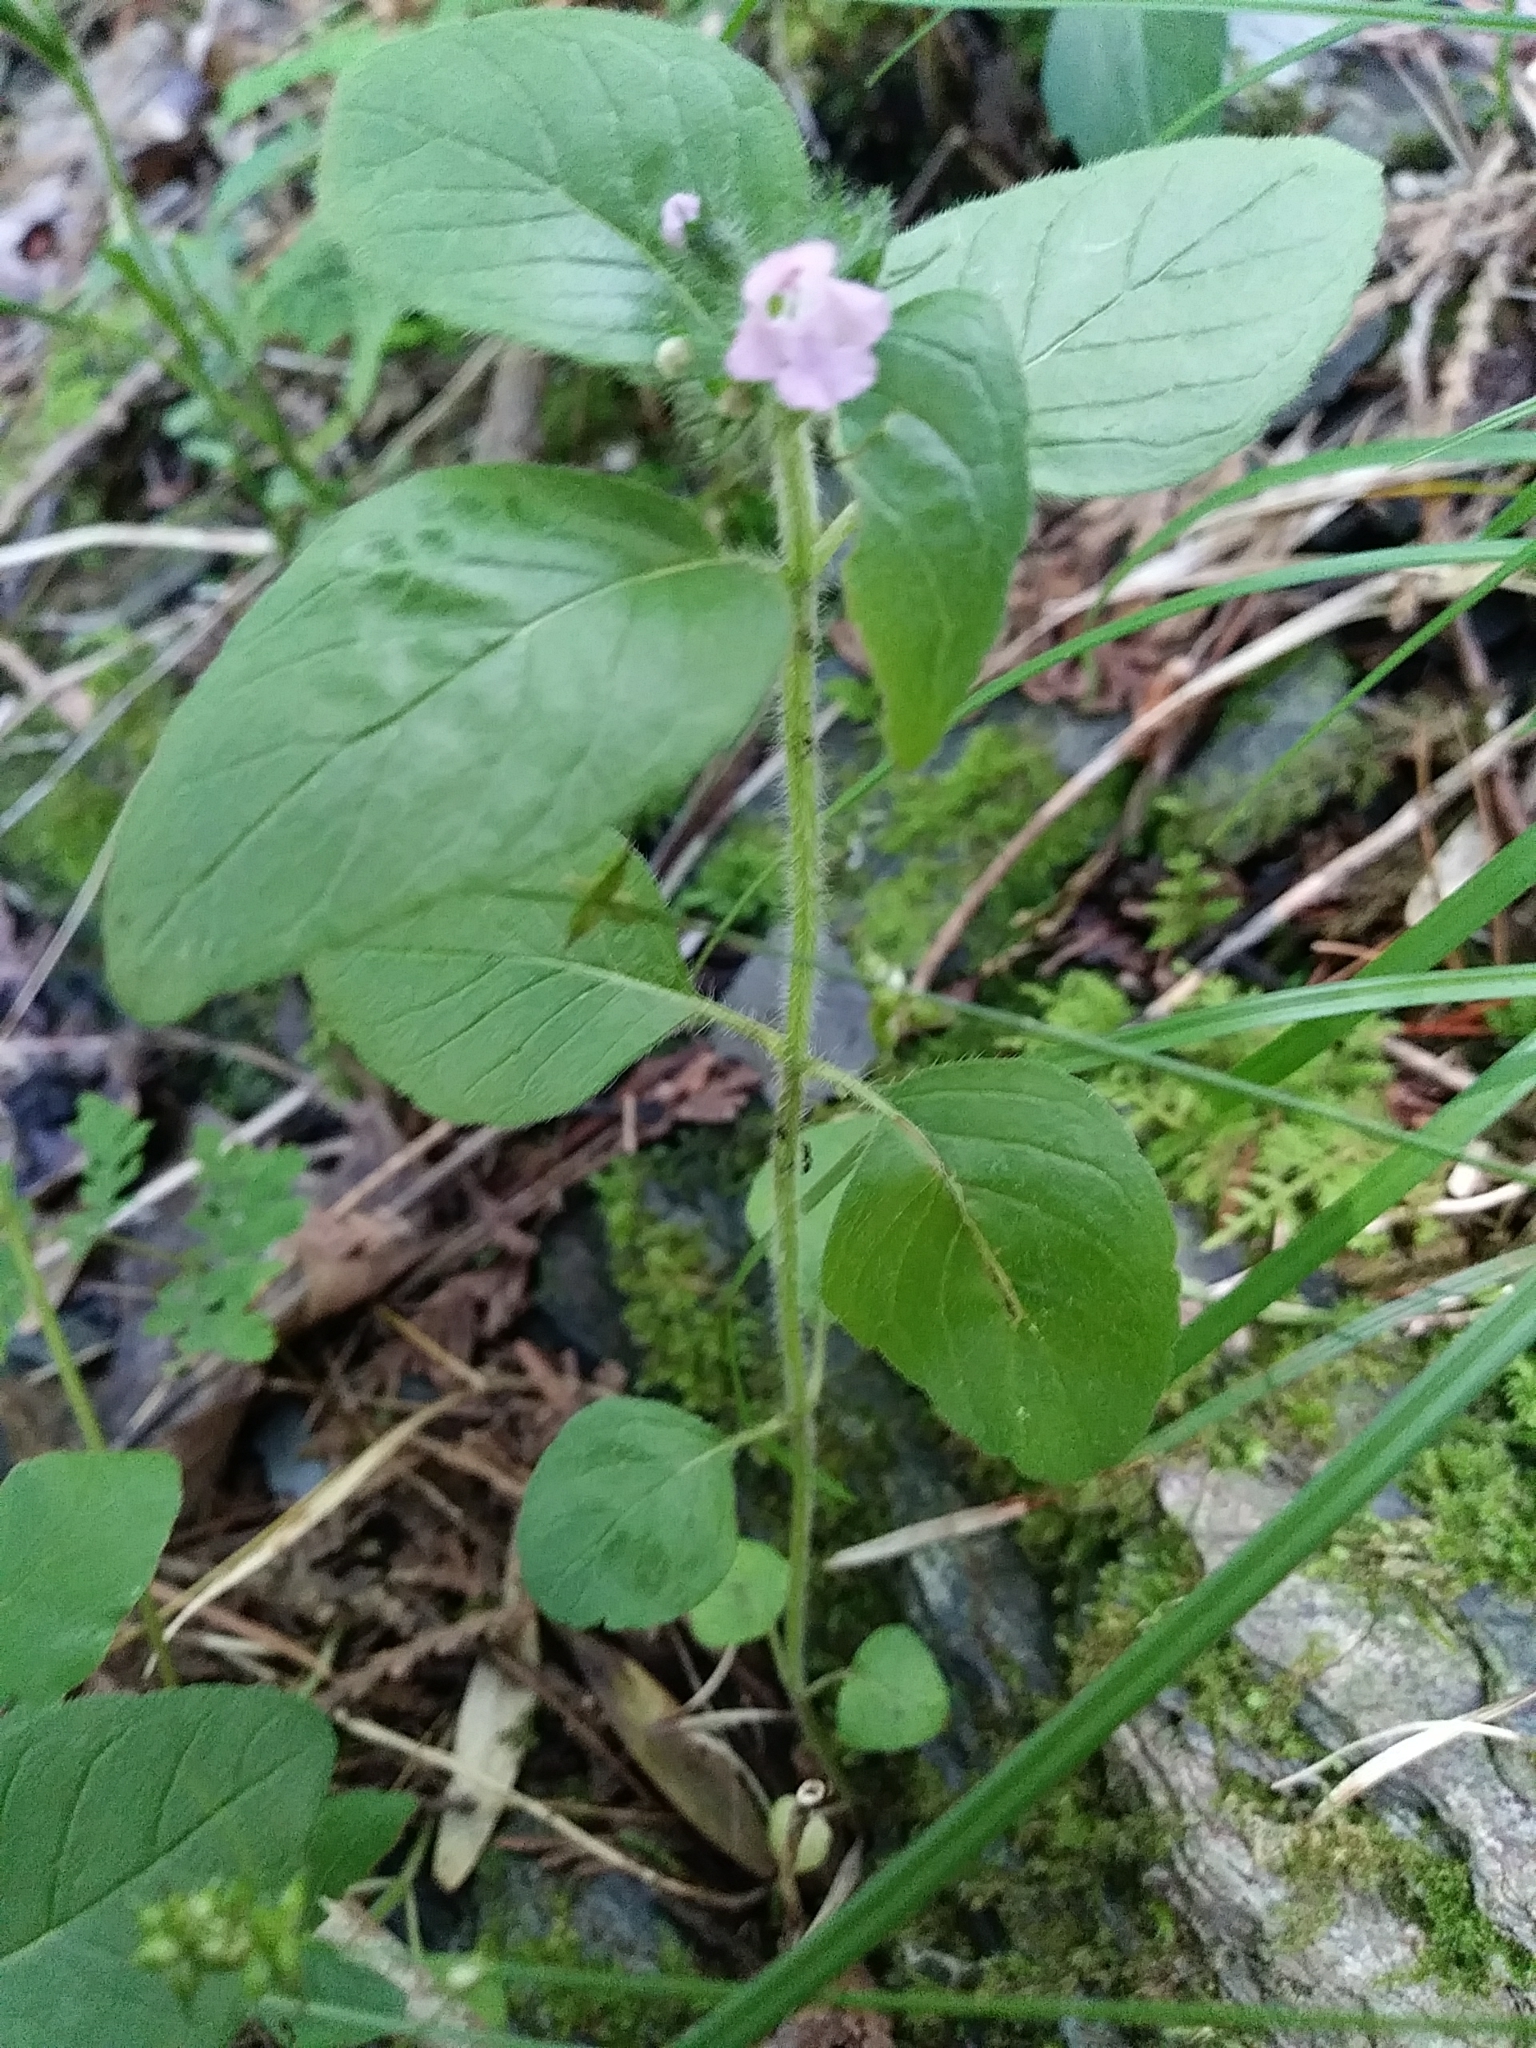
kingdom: Plantae
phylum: Tracheophyta
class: Magnoliopsida
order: Lamiales
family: Lamiaceae
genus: Clinopodium
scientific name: Clinopodium vulgare
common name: Wild basil
